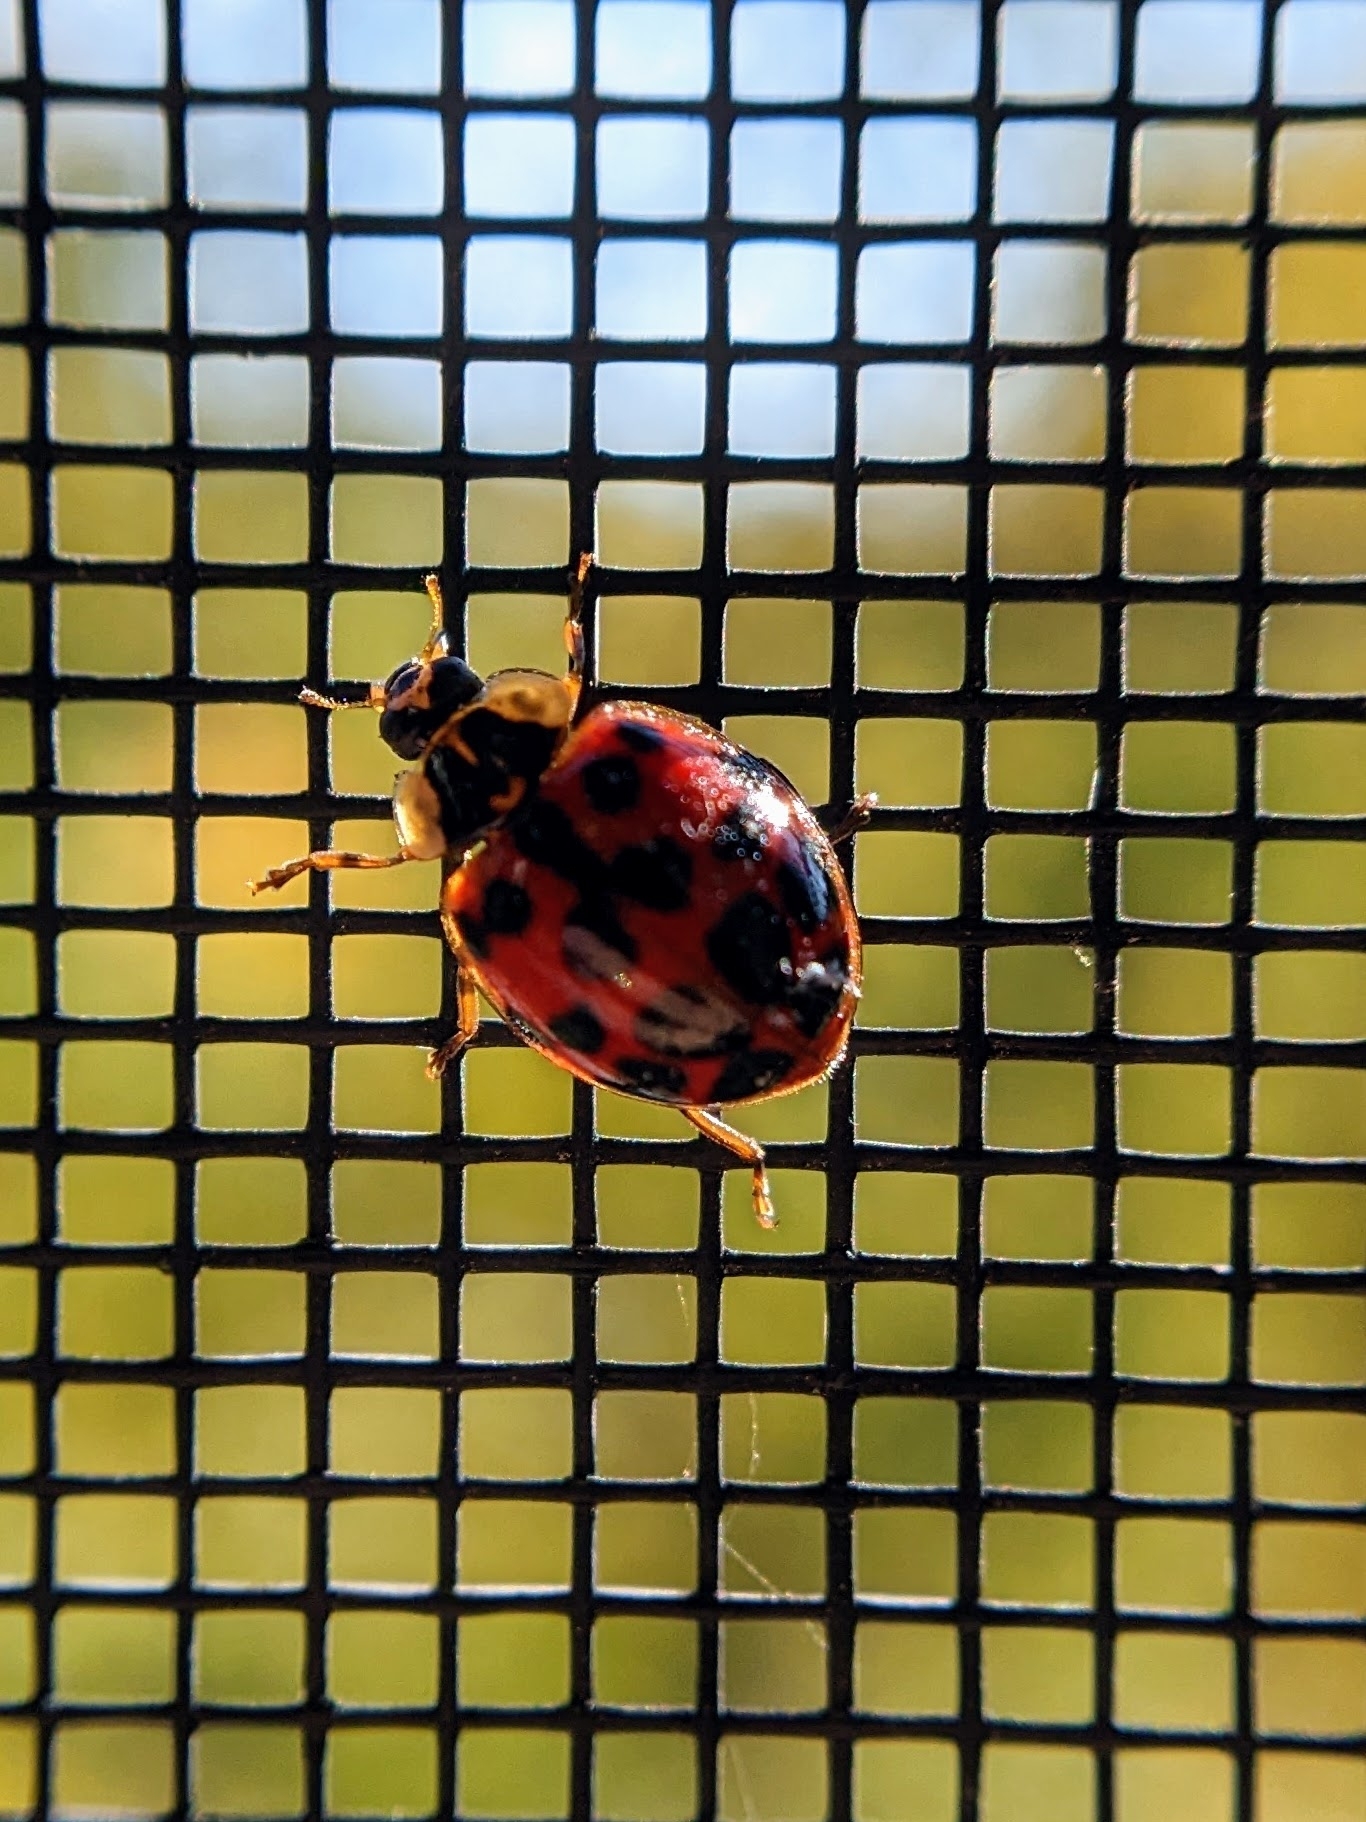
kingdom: Animalia
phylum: Arthropoda
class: Insecta
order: Coleoptera
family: Coccinellidae
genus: Harmonia
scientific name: Harmonia axyridis
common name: Harlequin ladybird
